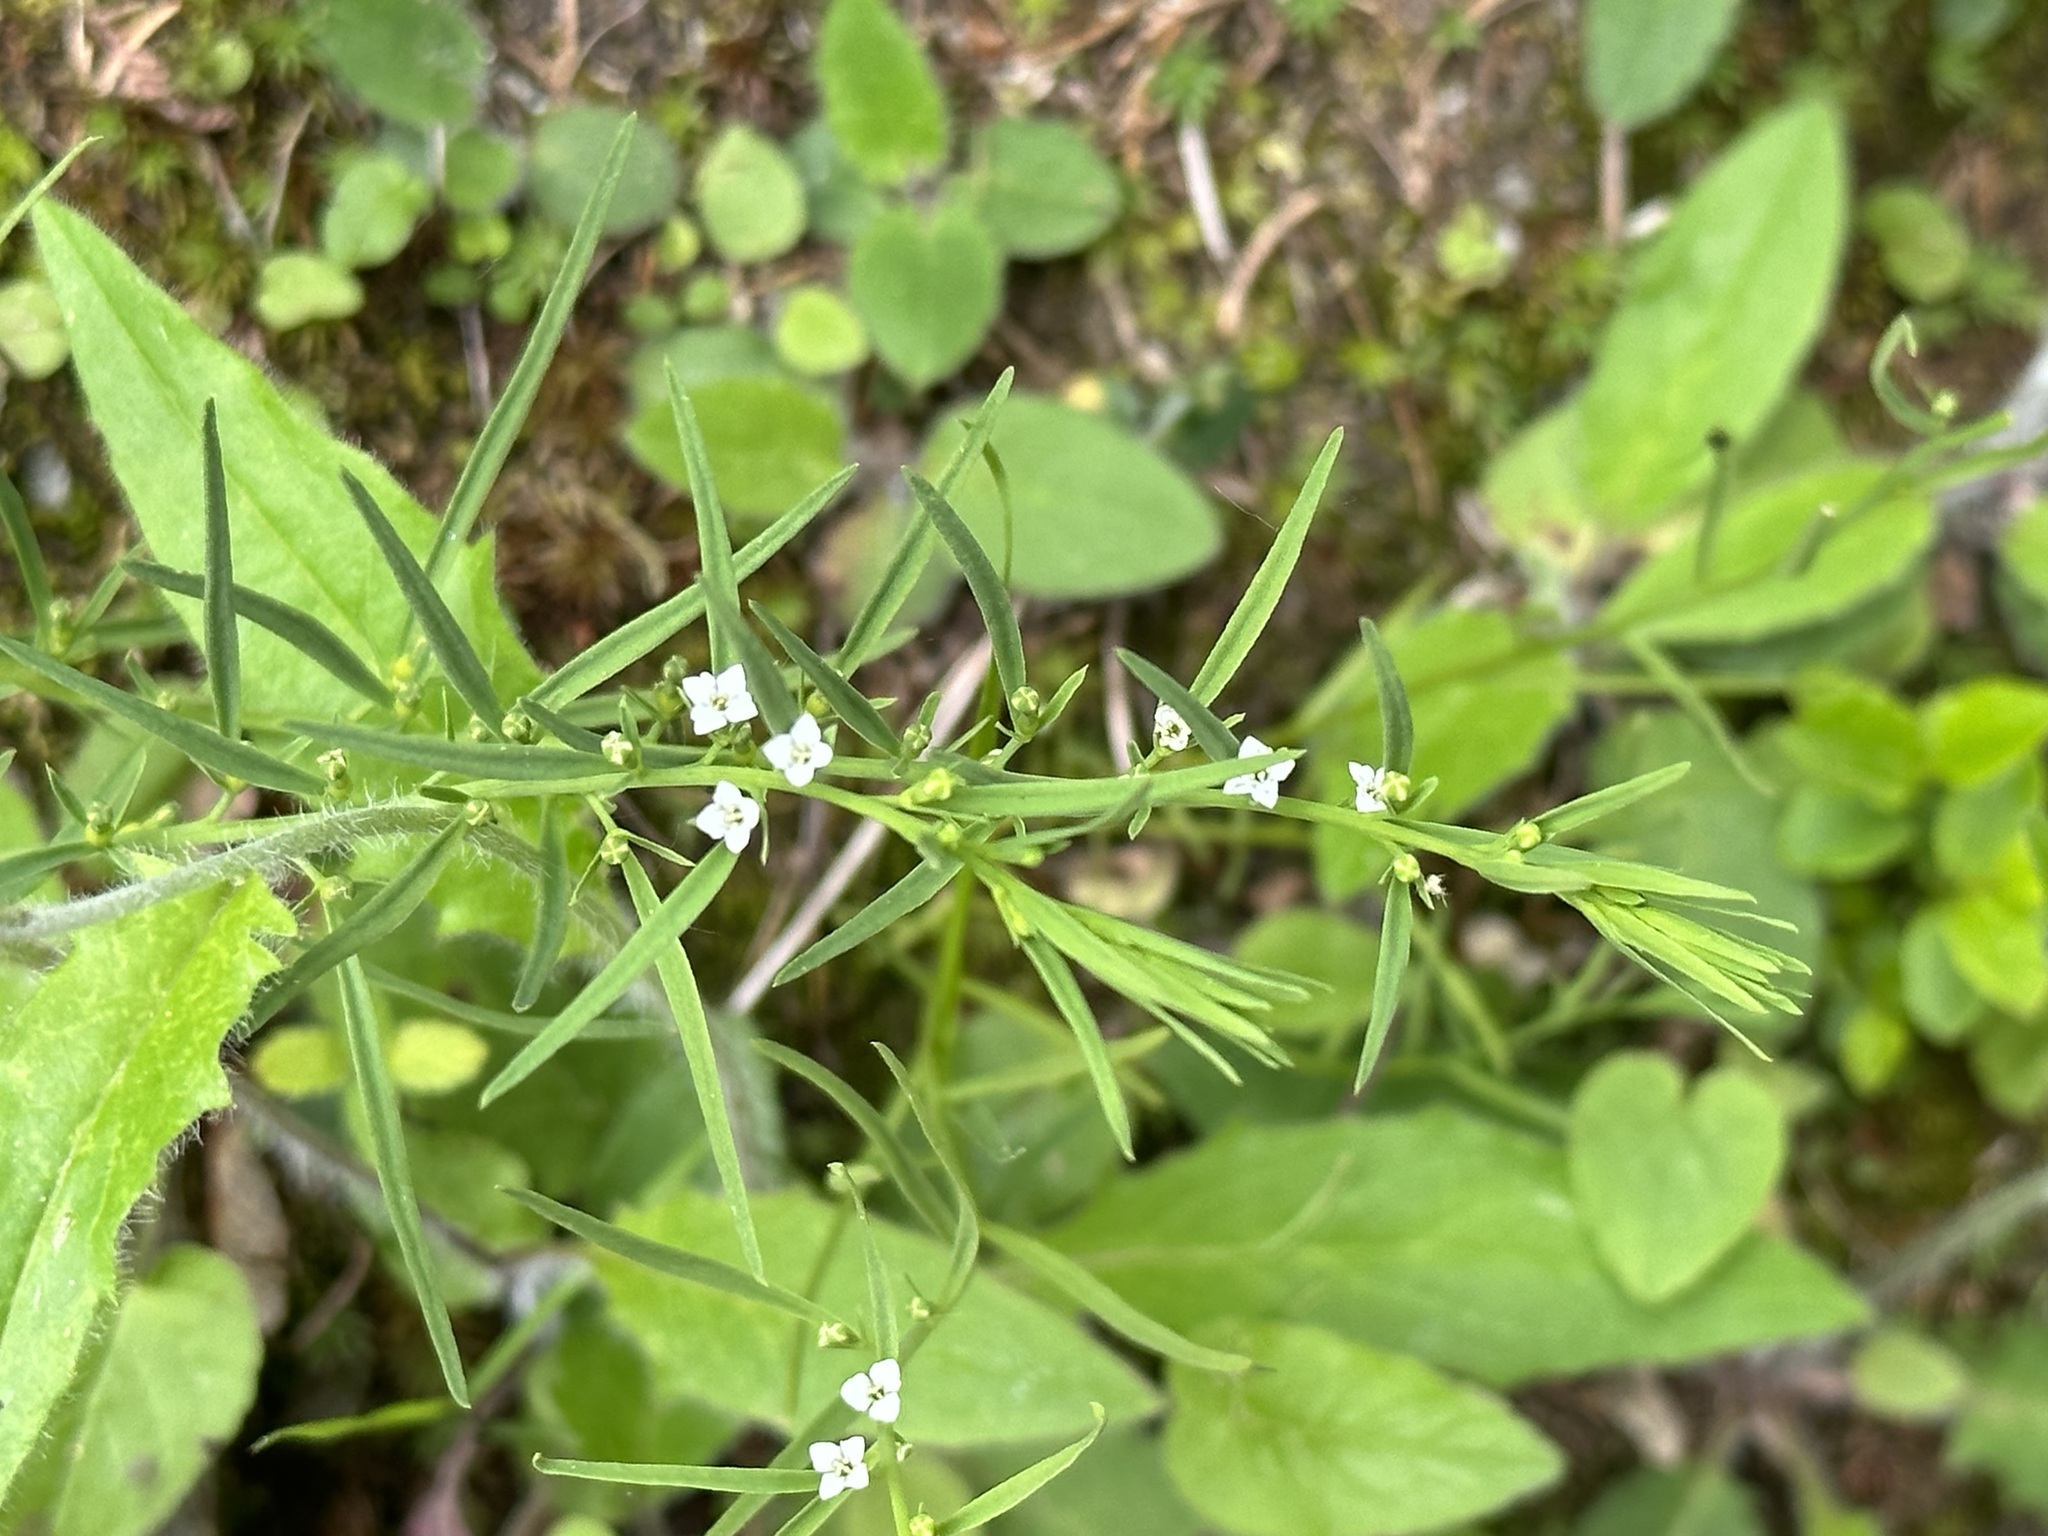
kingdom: Plantae
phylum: Tracheophyta
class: Magnoliopsida
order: Santalales
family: Thesiaceae
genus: Thesium
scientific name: Thesium alpinum
